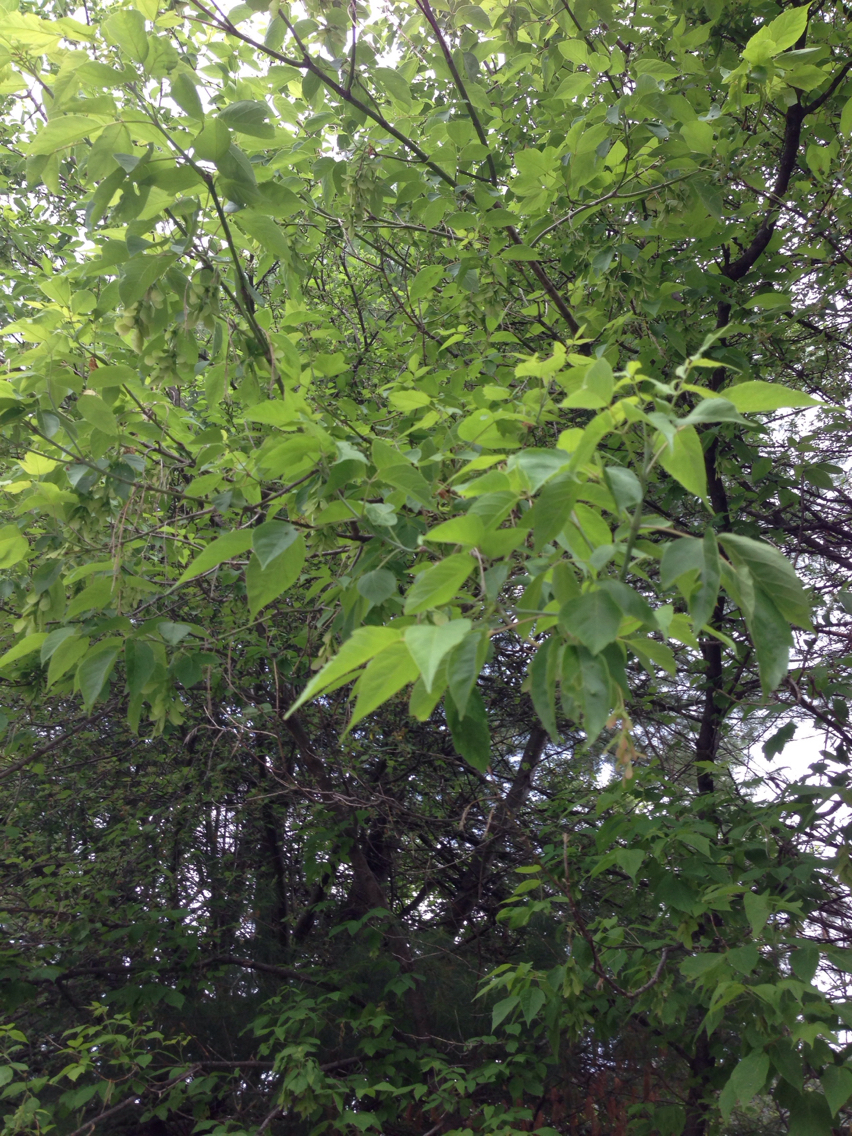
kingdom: Plantae
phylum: Tracheophyta
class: Magnoliopsida
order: Sapindales
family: Sapindaceae
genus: Acer
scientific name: Acer negundo
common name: Ashleaf maple
